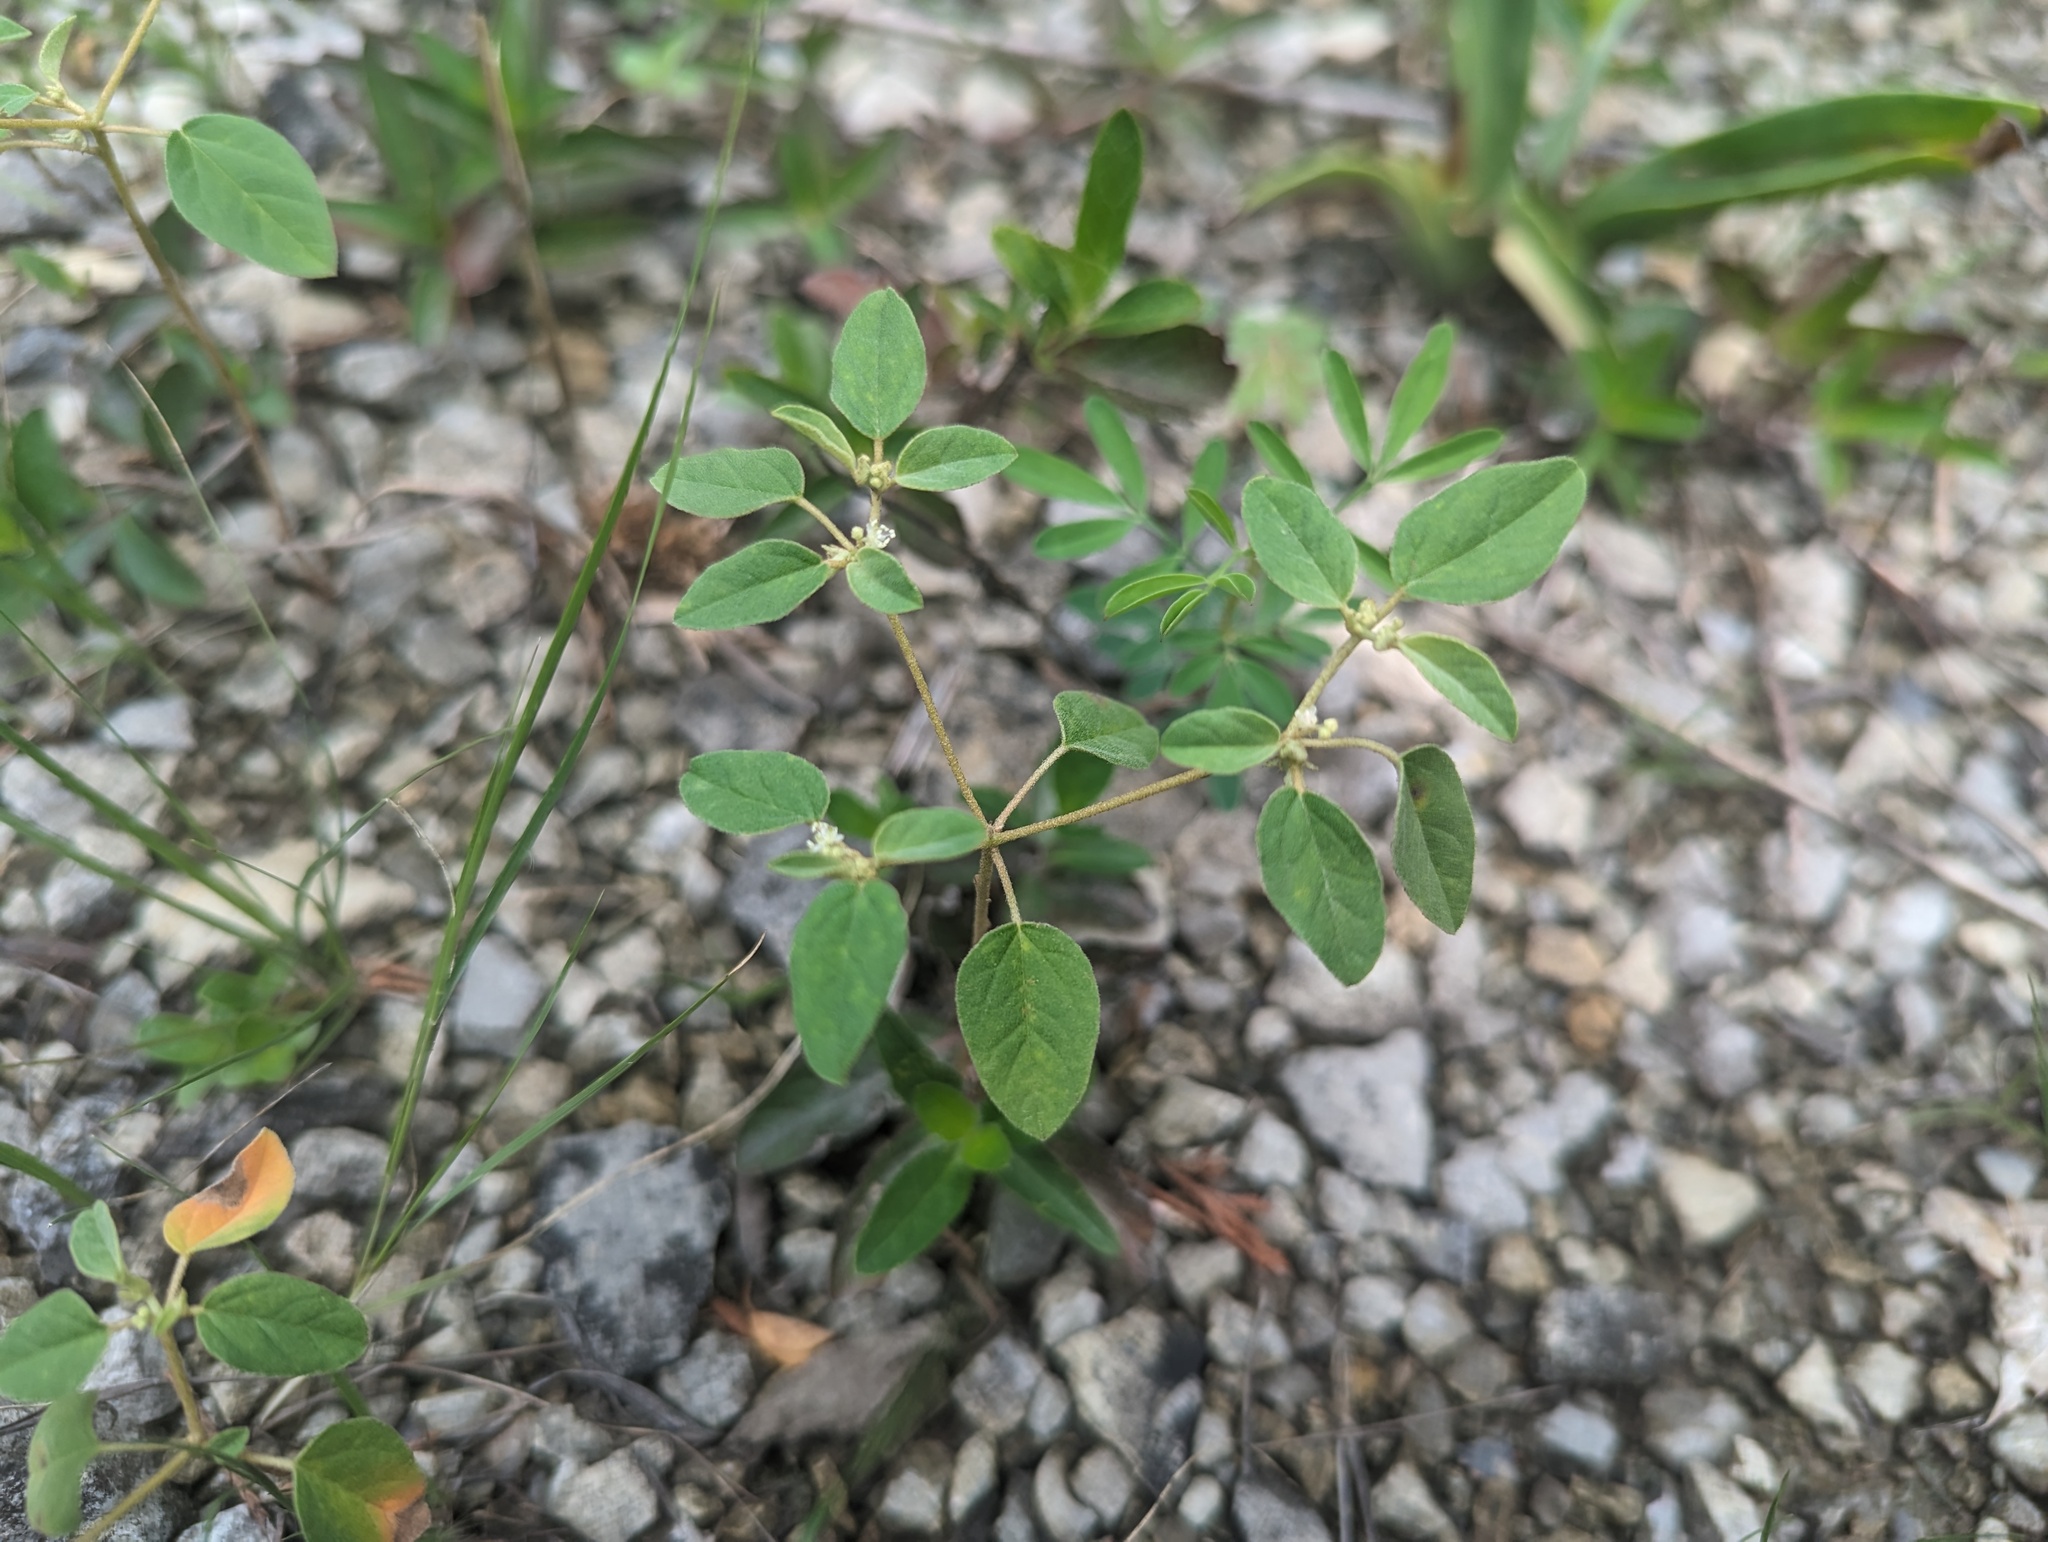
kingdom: Plantae
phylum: Tracheophyta
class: Magnoliopsida
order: Malpighiales
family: Euphorbiaceae
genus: Croton
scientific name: Croton monanthogynus
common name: One-seed croton
